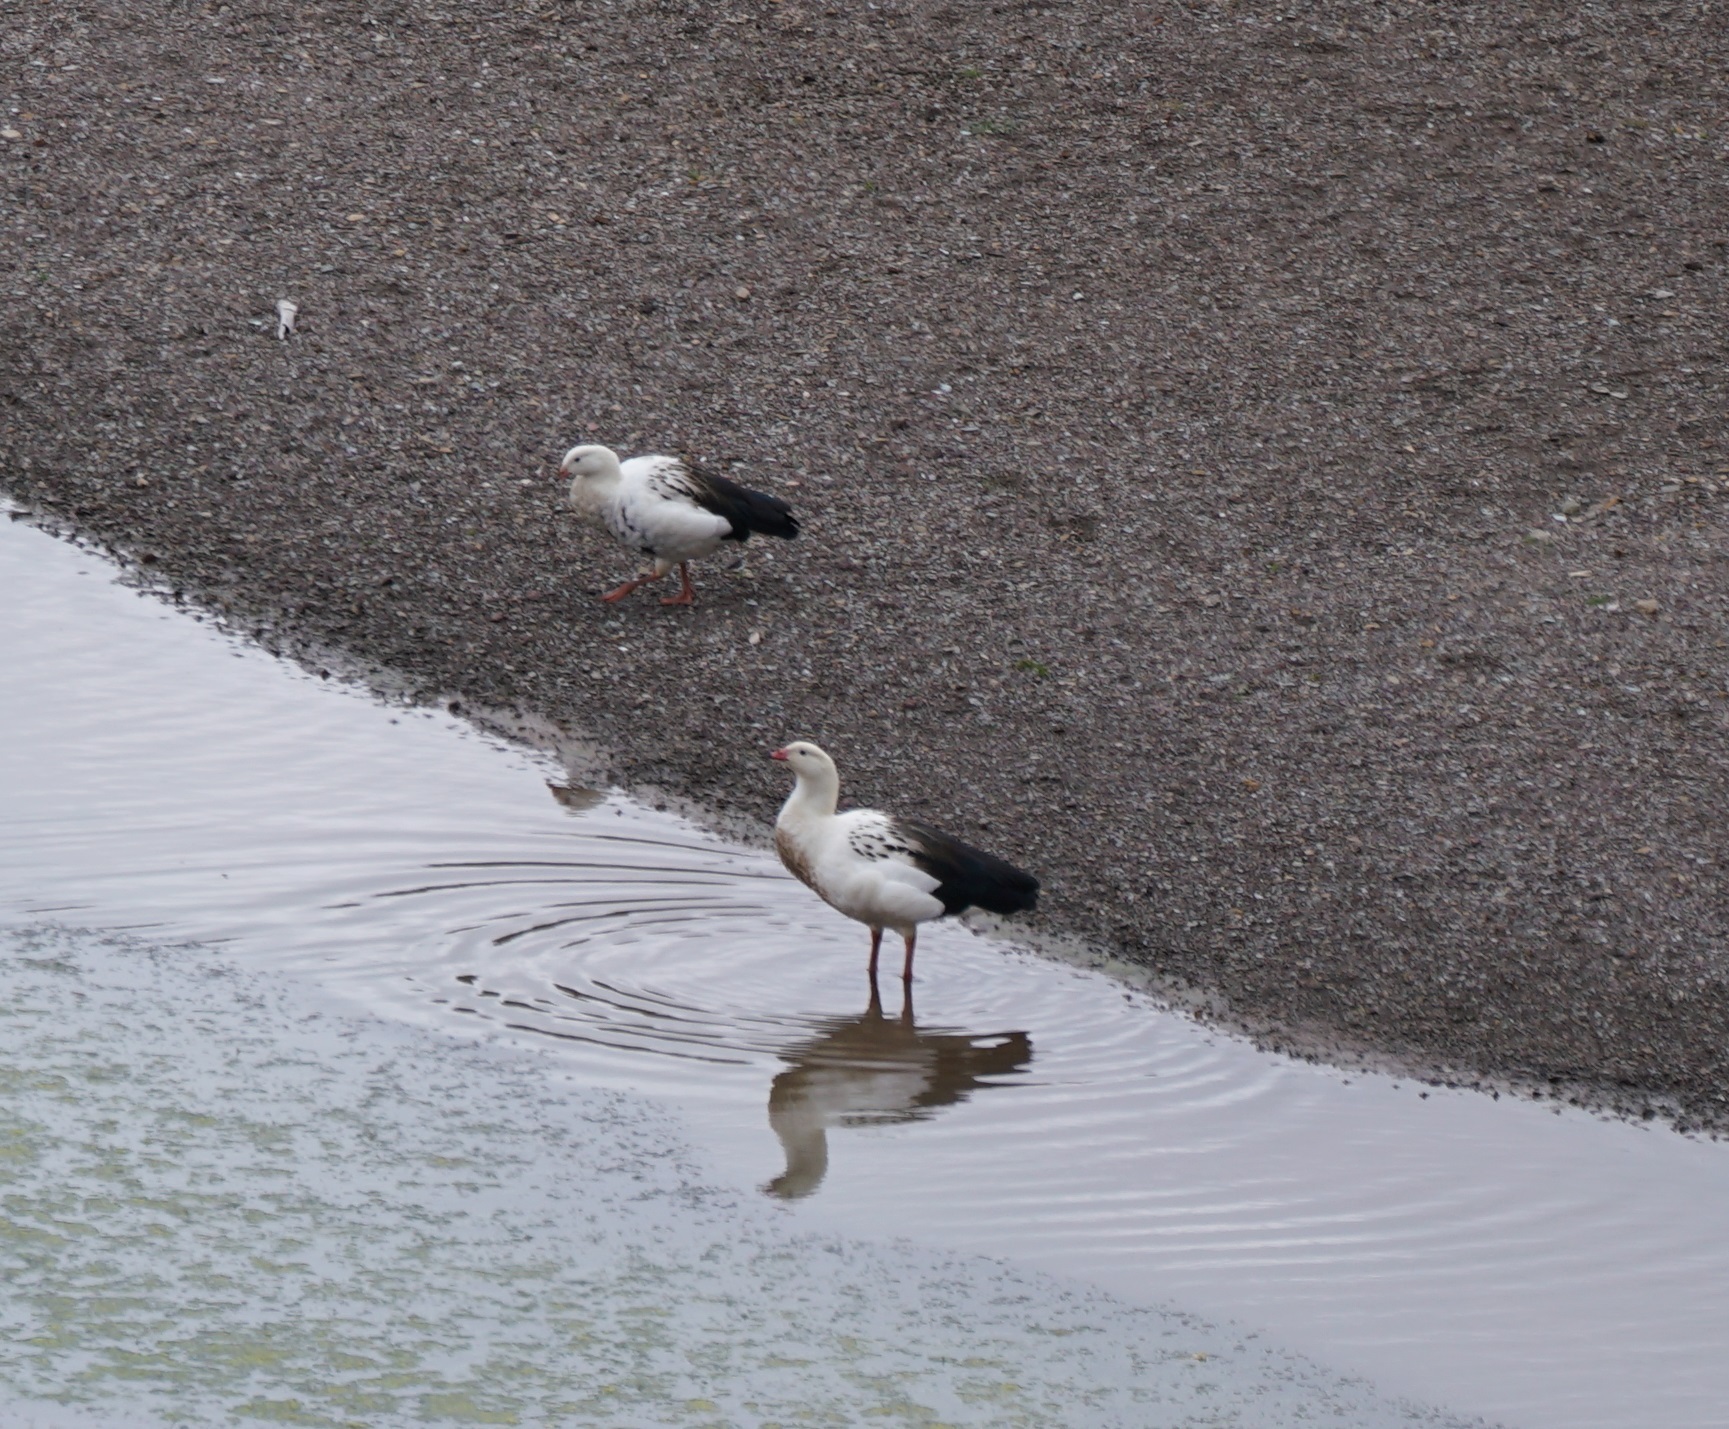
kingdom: Animalia
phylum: Chordata
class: Aves
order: Anseriformes
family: Anatidae
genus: Chloephaga
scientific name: Chloephaga melanoptera
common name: Andean goose
